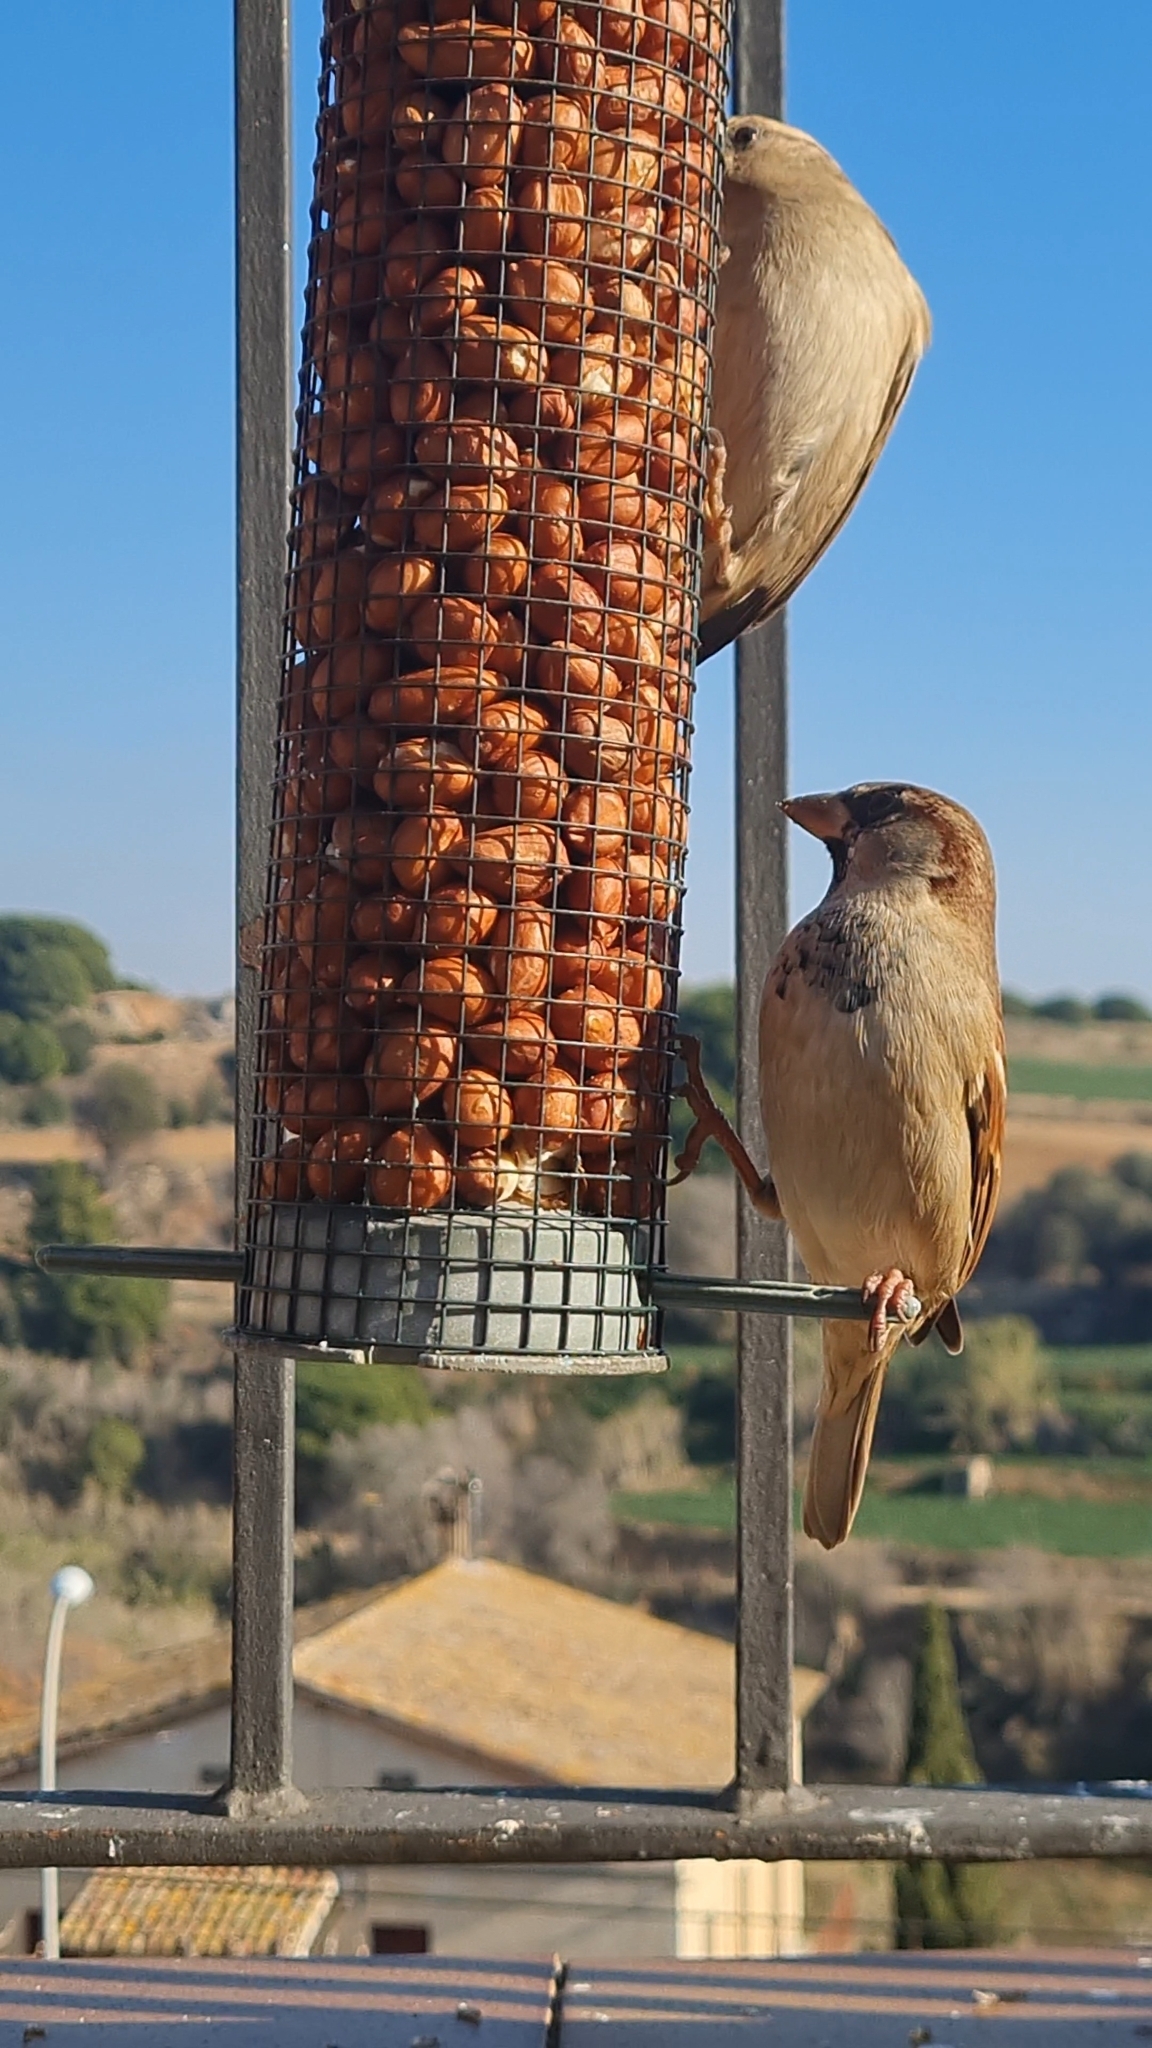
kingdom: Animalia
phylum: Chordata
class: Aves
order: Passeriformes
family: Passeridae
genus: Passer
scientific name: Passer domesticus
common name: House sparrow
